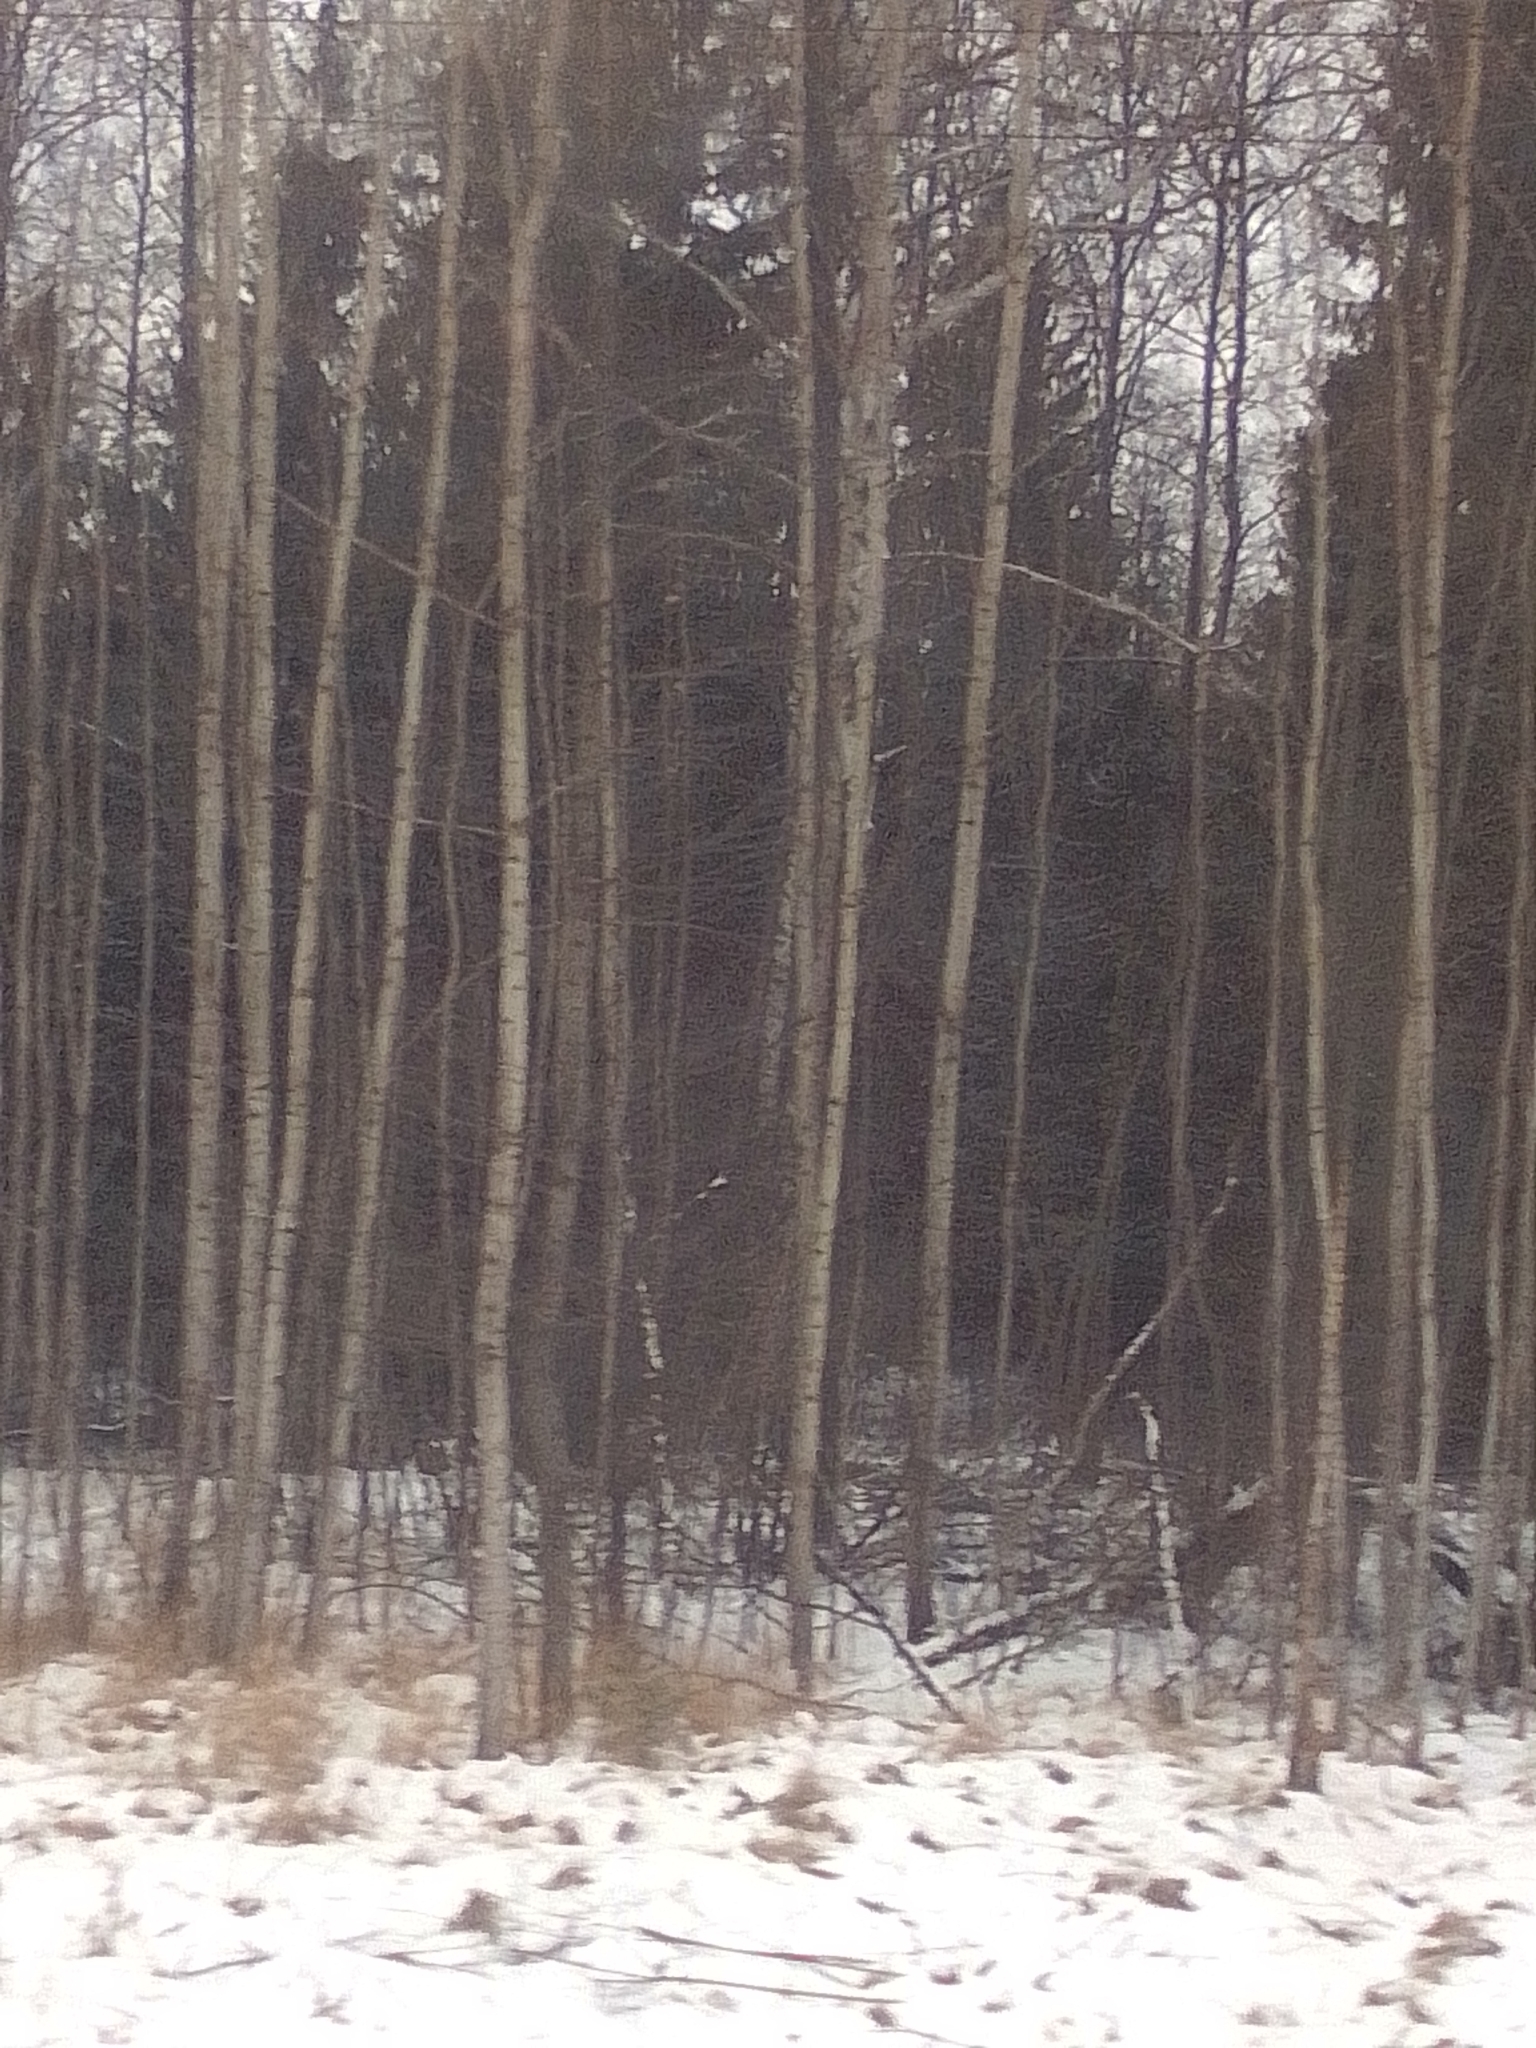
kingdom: Plantae
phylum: Tracheophyta
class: Magnoliopsida
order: Malpighiales
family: Salicaceae
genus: Populus
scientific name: Populus tremula
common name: European aspen
